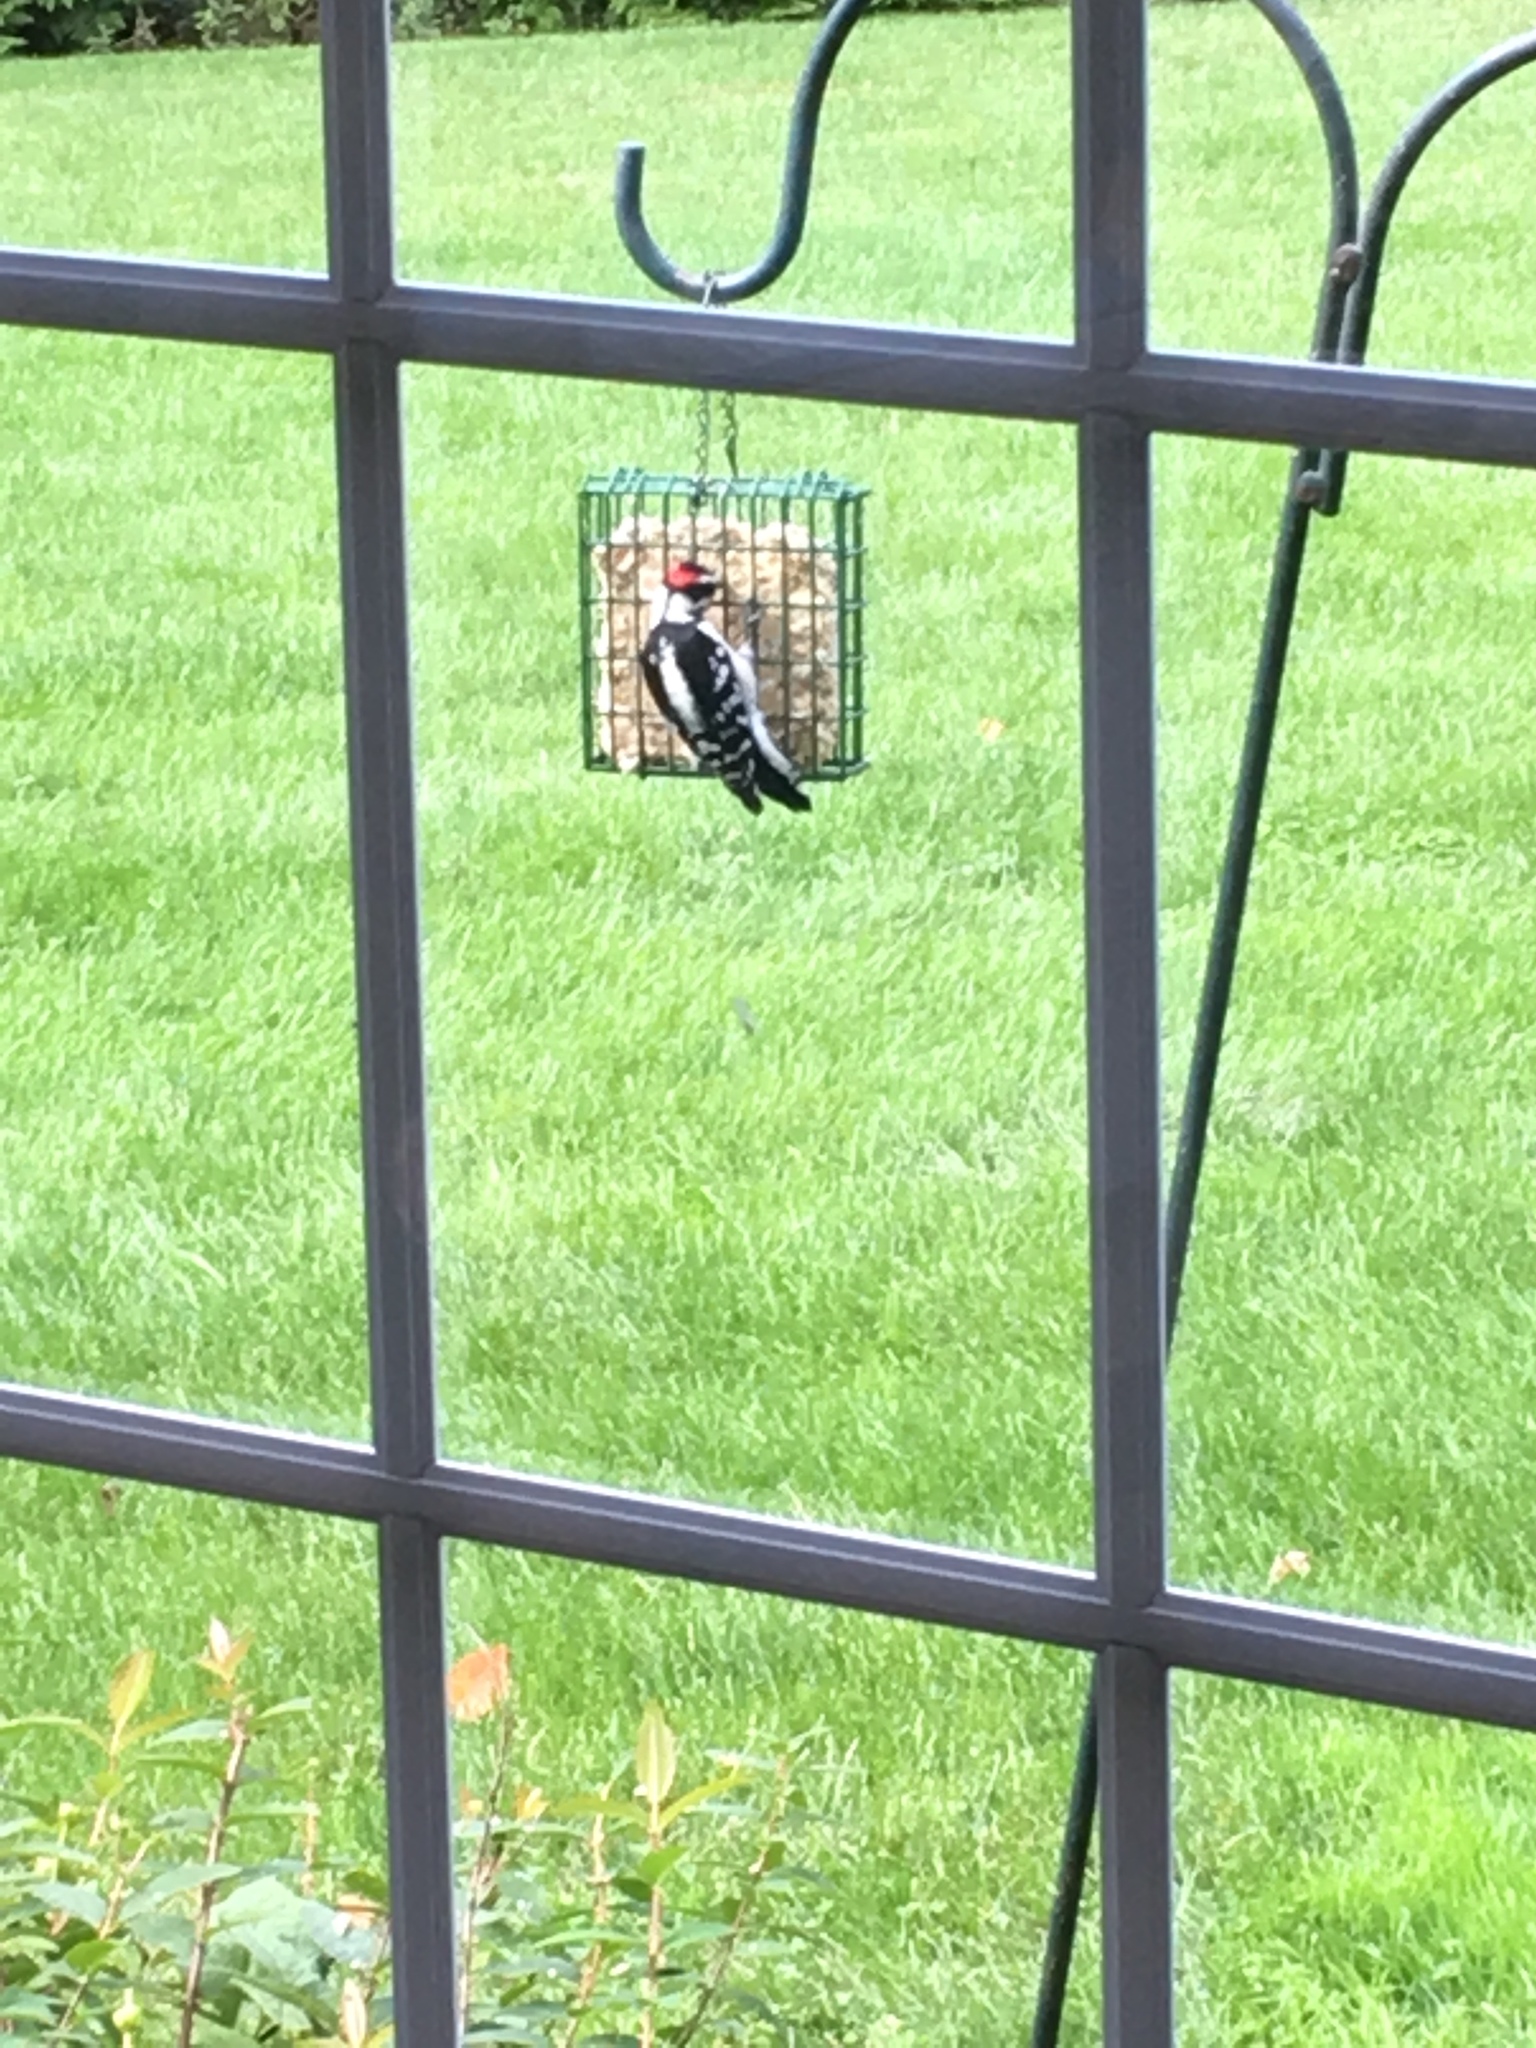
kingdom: Animalia
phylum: Chordata
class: Aves
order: Piciformes
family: Picidae
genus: Dryobates
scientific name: Dryobates pubescens
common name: Downy woodpecker
